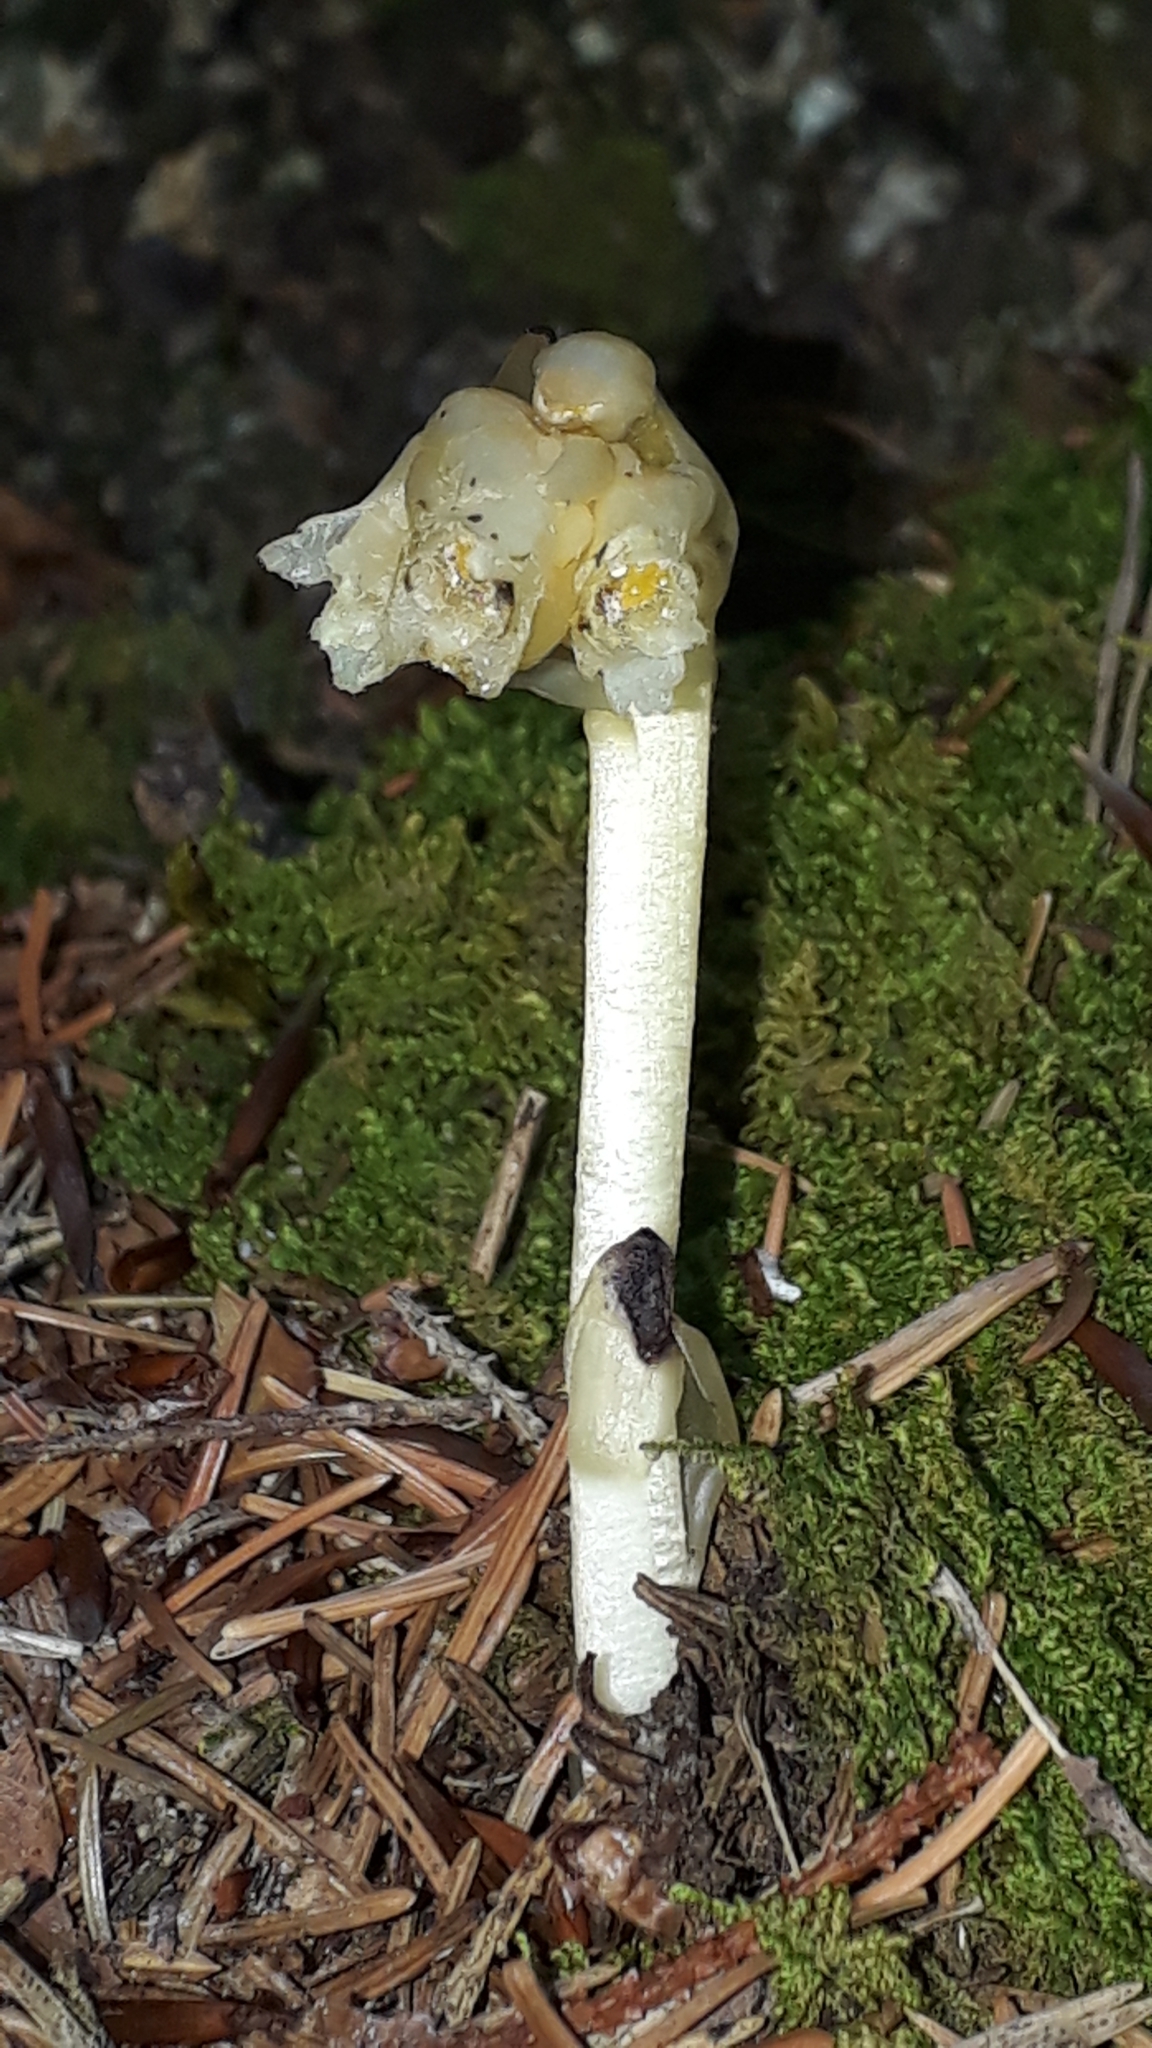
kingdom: Plantae
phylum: Tracheophyta
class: Magnoliopsida
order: Ericales
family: Ericaceae
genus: Hypopitys
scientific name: Hypopitys monotropa
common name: Yellow bird's-nest
